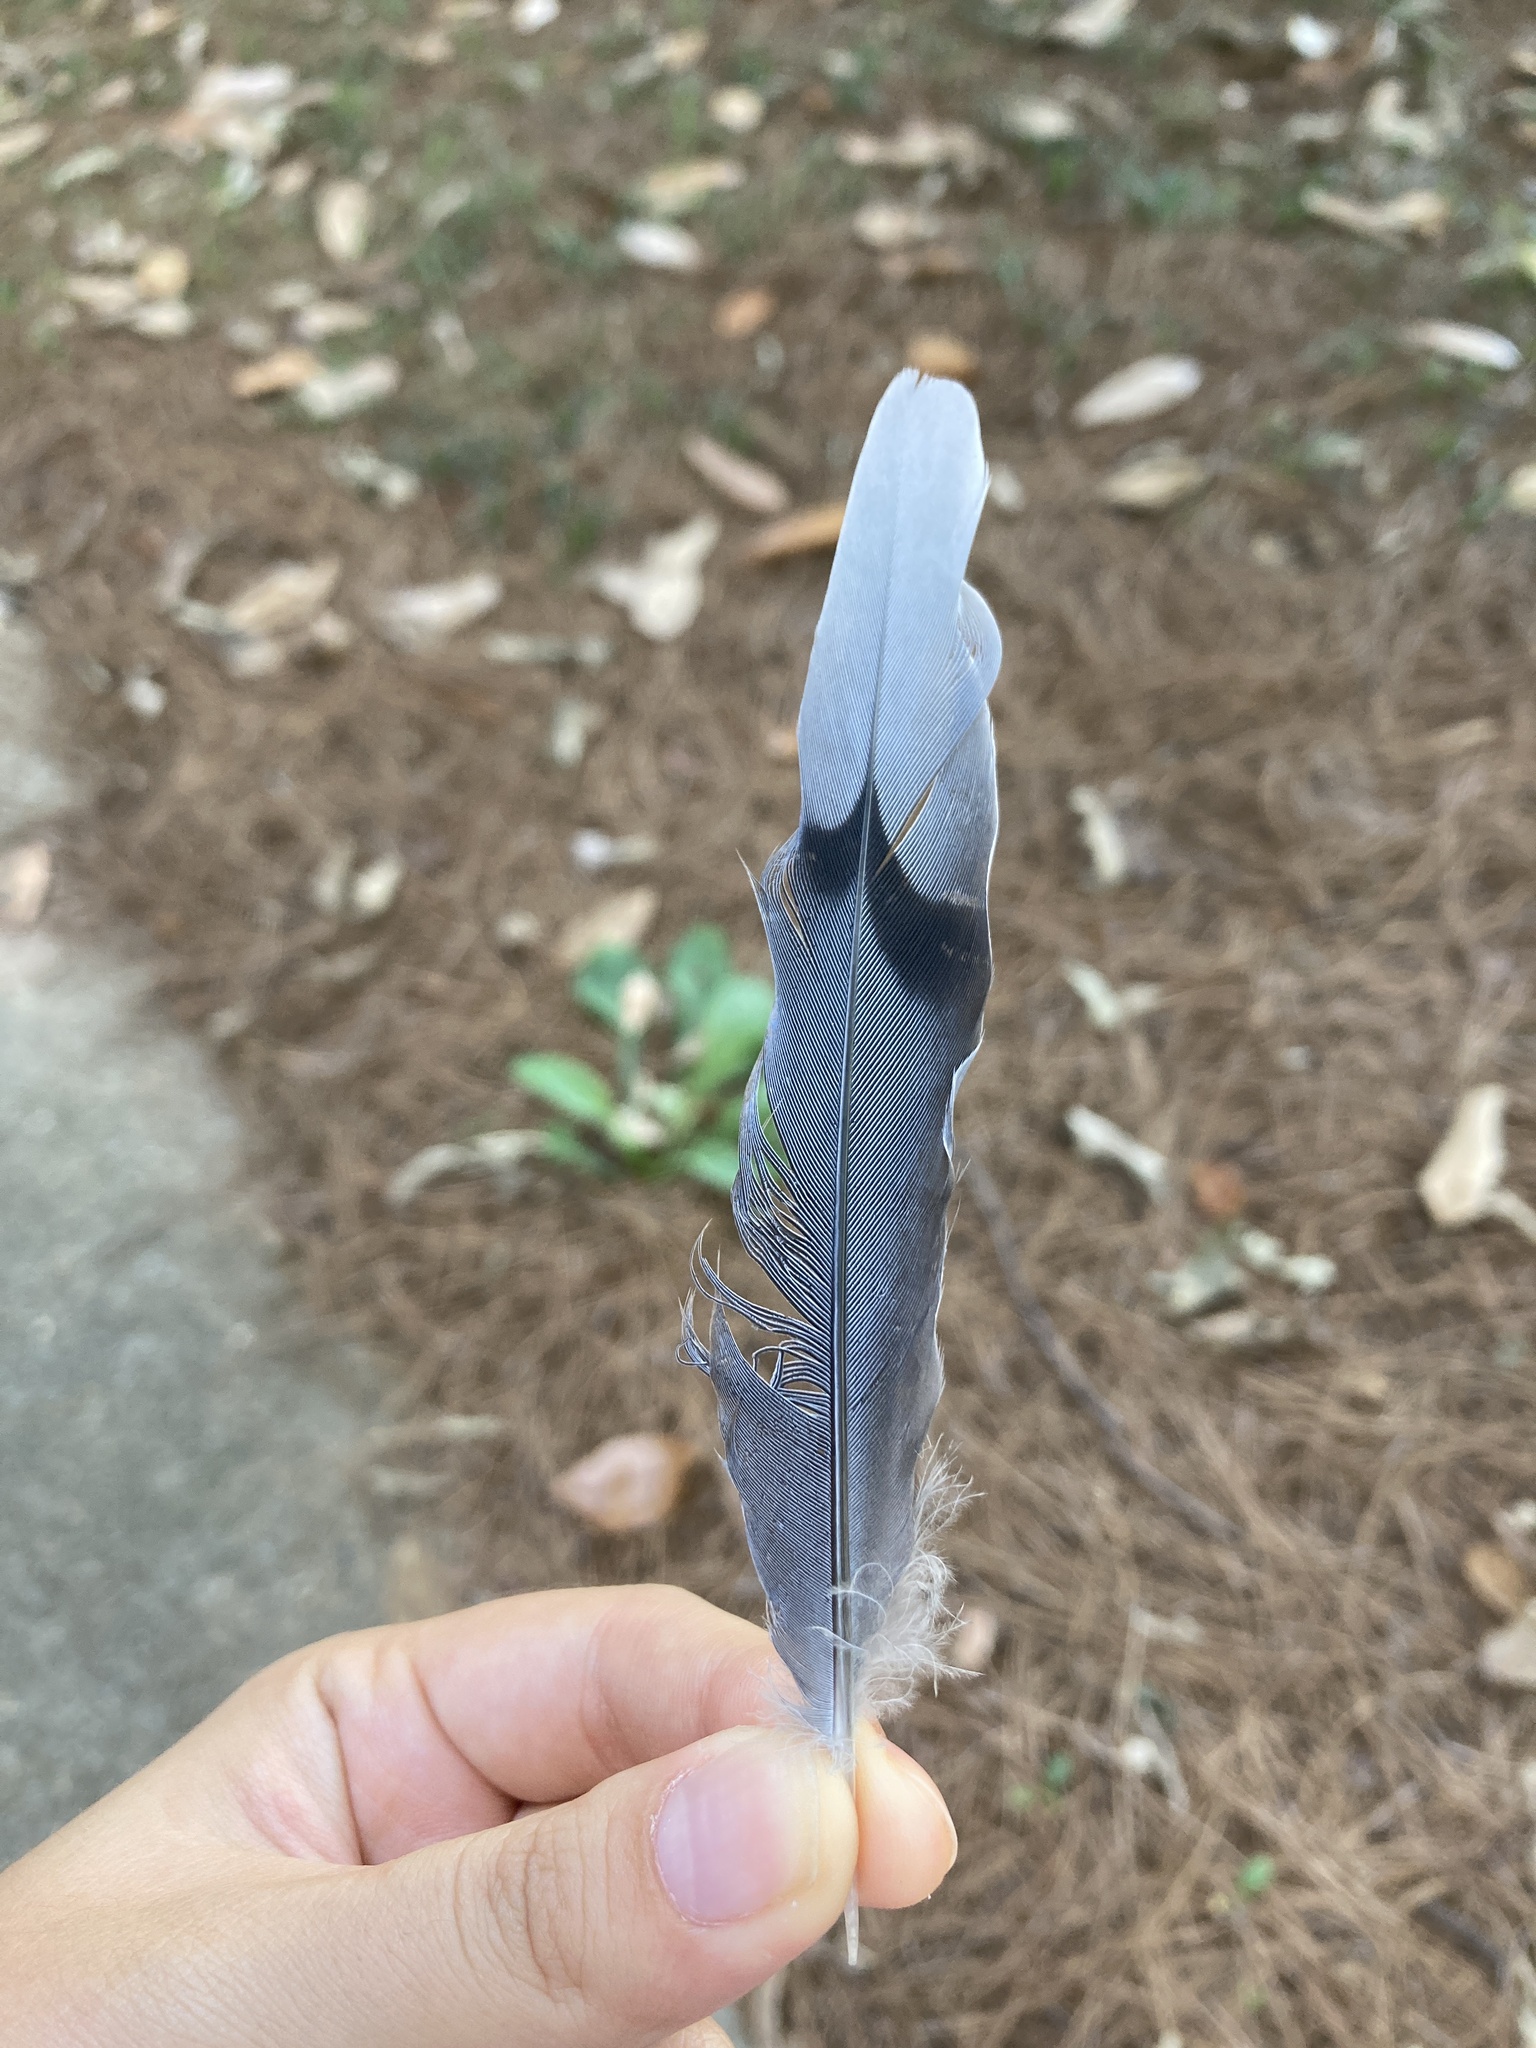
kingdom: Animalia
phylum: Chordata
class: Aves
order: Columbiformes
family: Columbidae
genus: Zenaida
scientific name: Zenaida macroura
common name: Mourning dove
